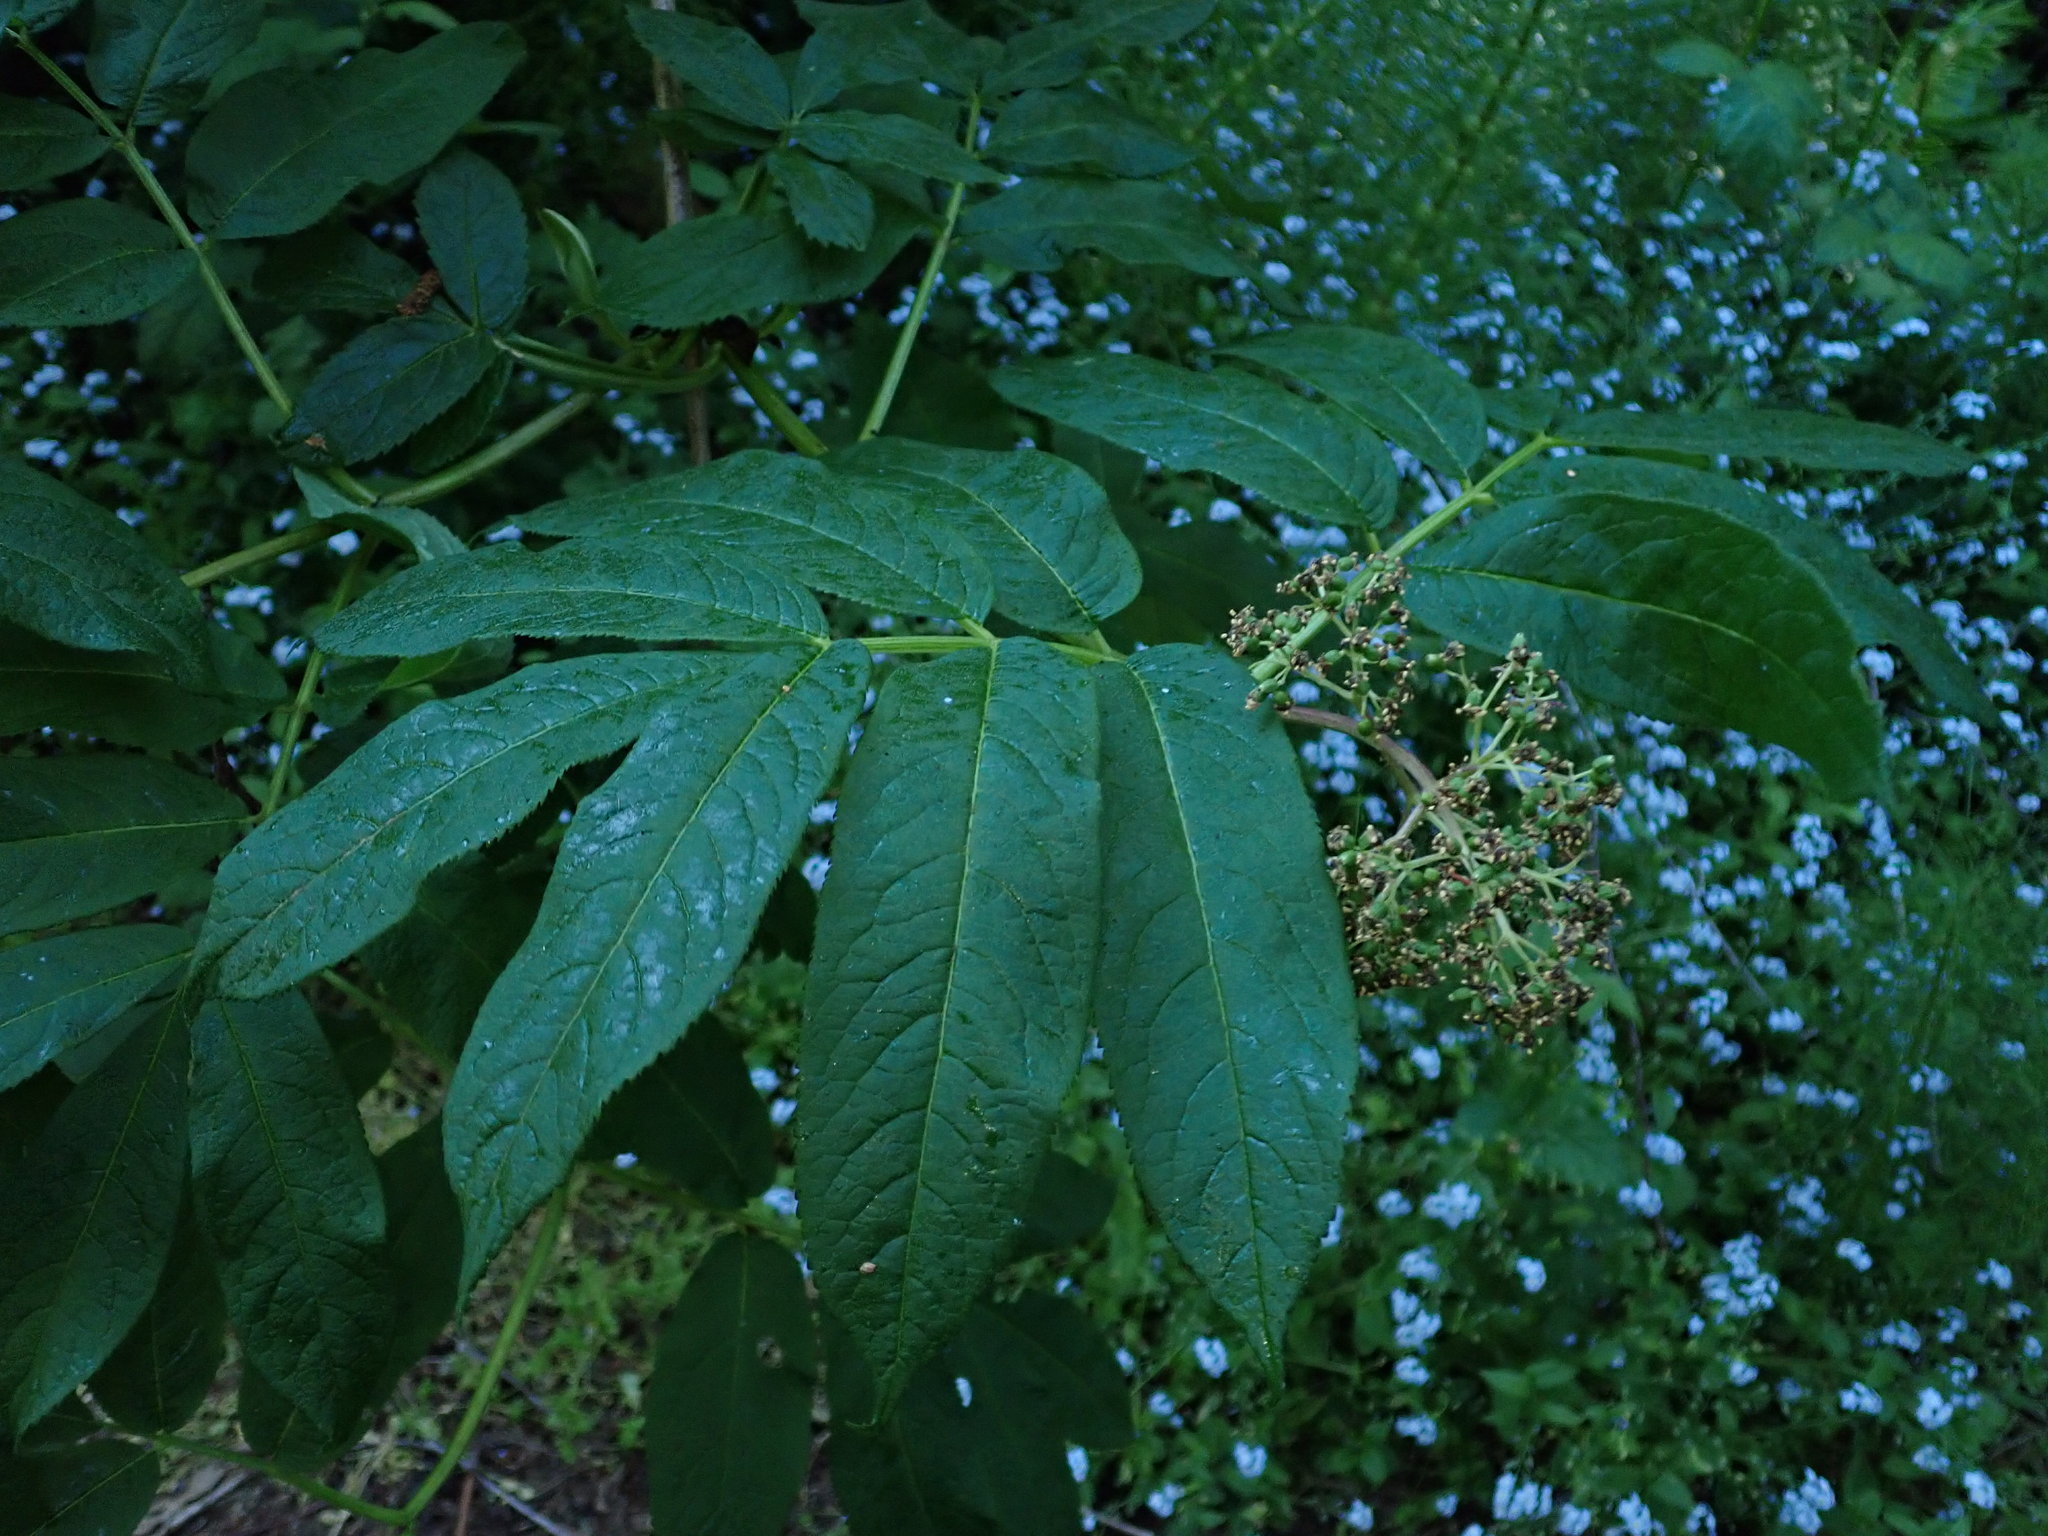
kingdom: Plantae
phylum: Tracheophyta
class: Magnoliopsida
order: Dipsacales
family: Viburnaceae
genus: Sambucus
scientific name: Sambucus racemosa
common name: Red-berried elder
